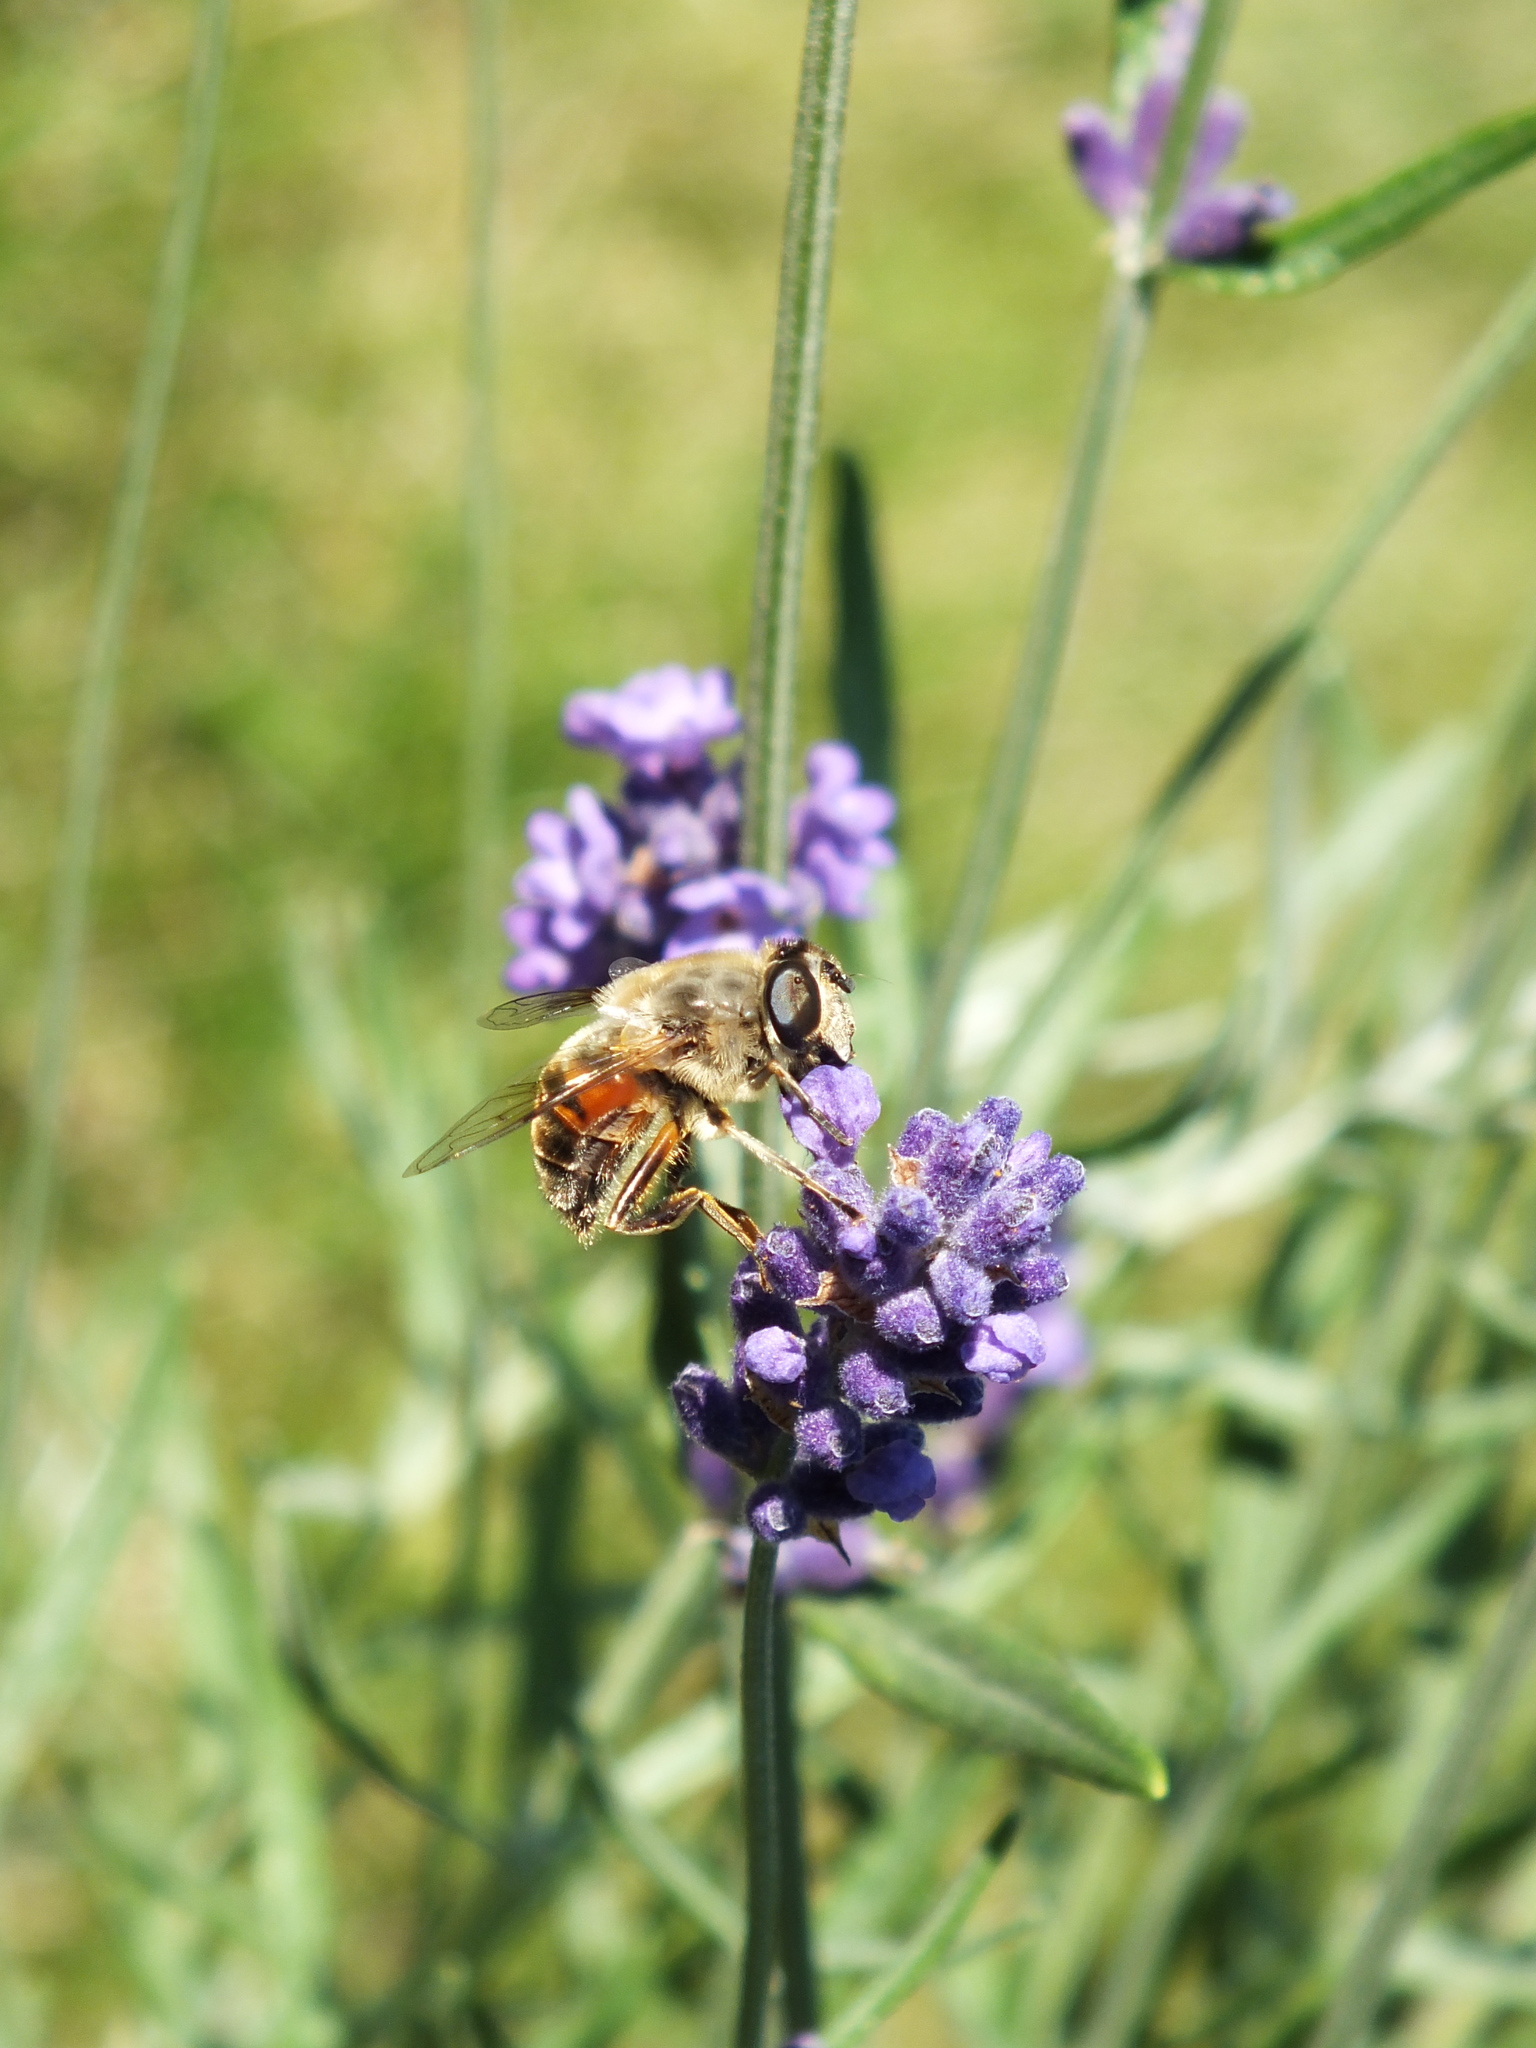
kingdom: Animalia
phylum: Arthropoda
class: Insecta
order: Diptera
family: Syrphidae
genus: Eristalis
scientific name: Eristalis tenax
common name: Drone fly
